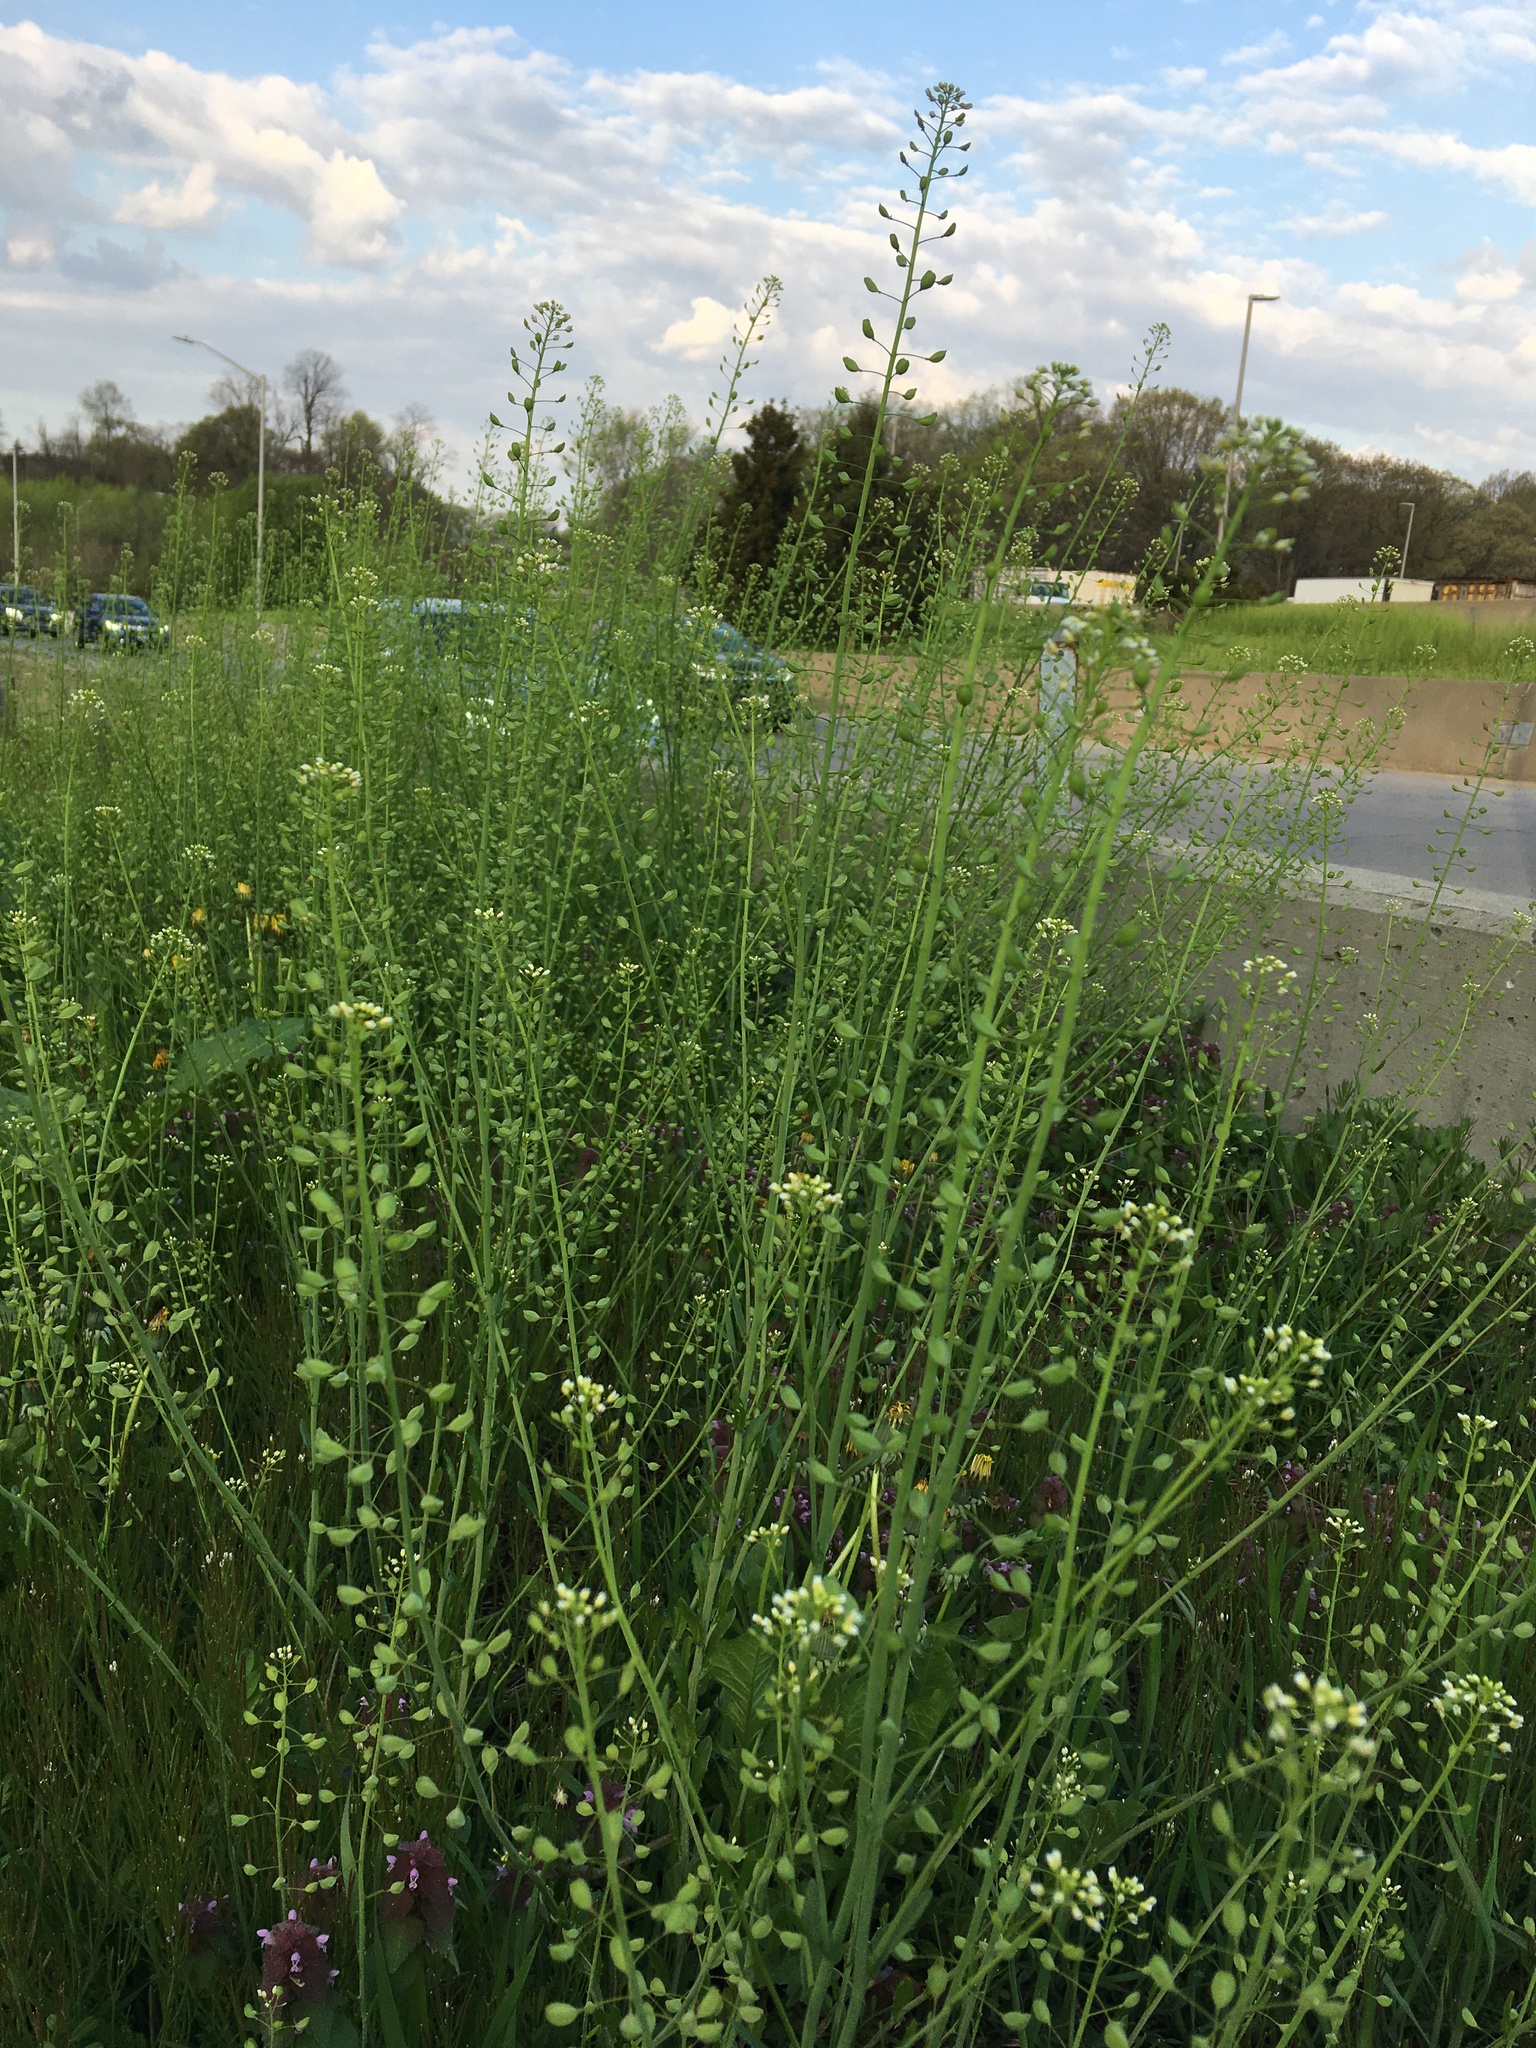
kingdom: Plantae
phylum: Tracheophyta
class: Magnoliopsida
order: Brassicales
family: Brassicaceae
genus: Mummenhoffia
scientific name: Mummenhoffia alliacea
